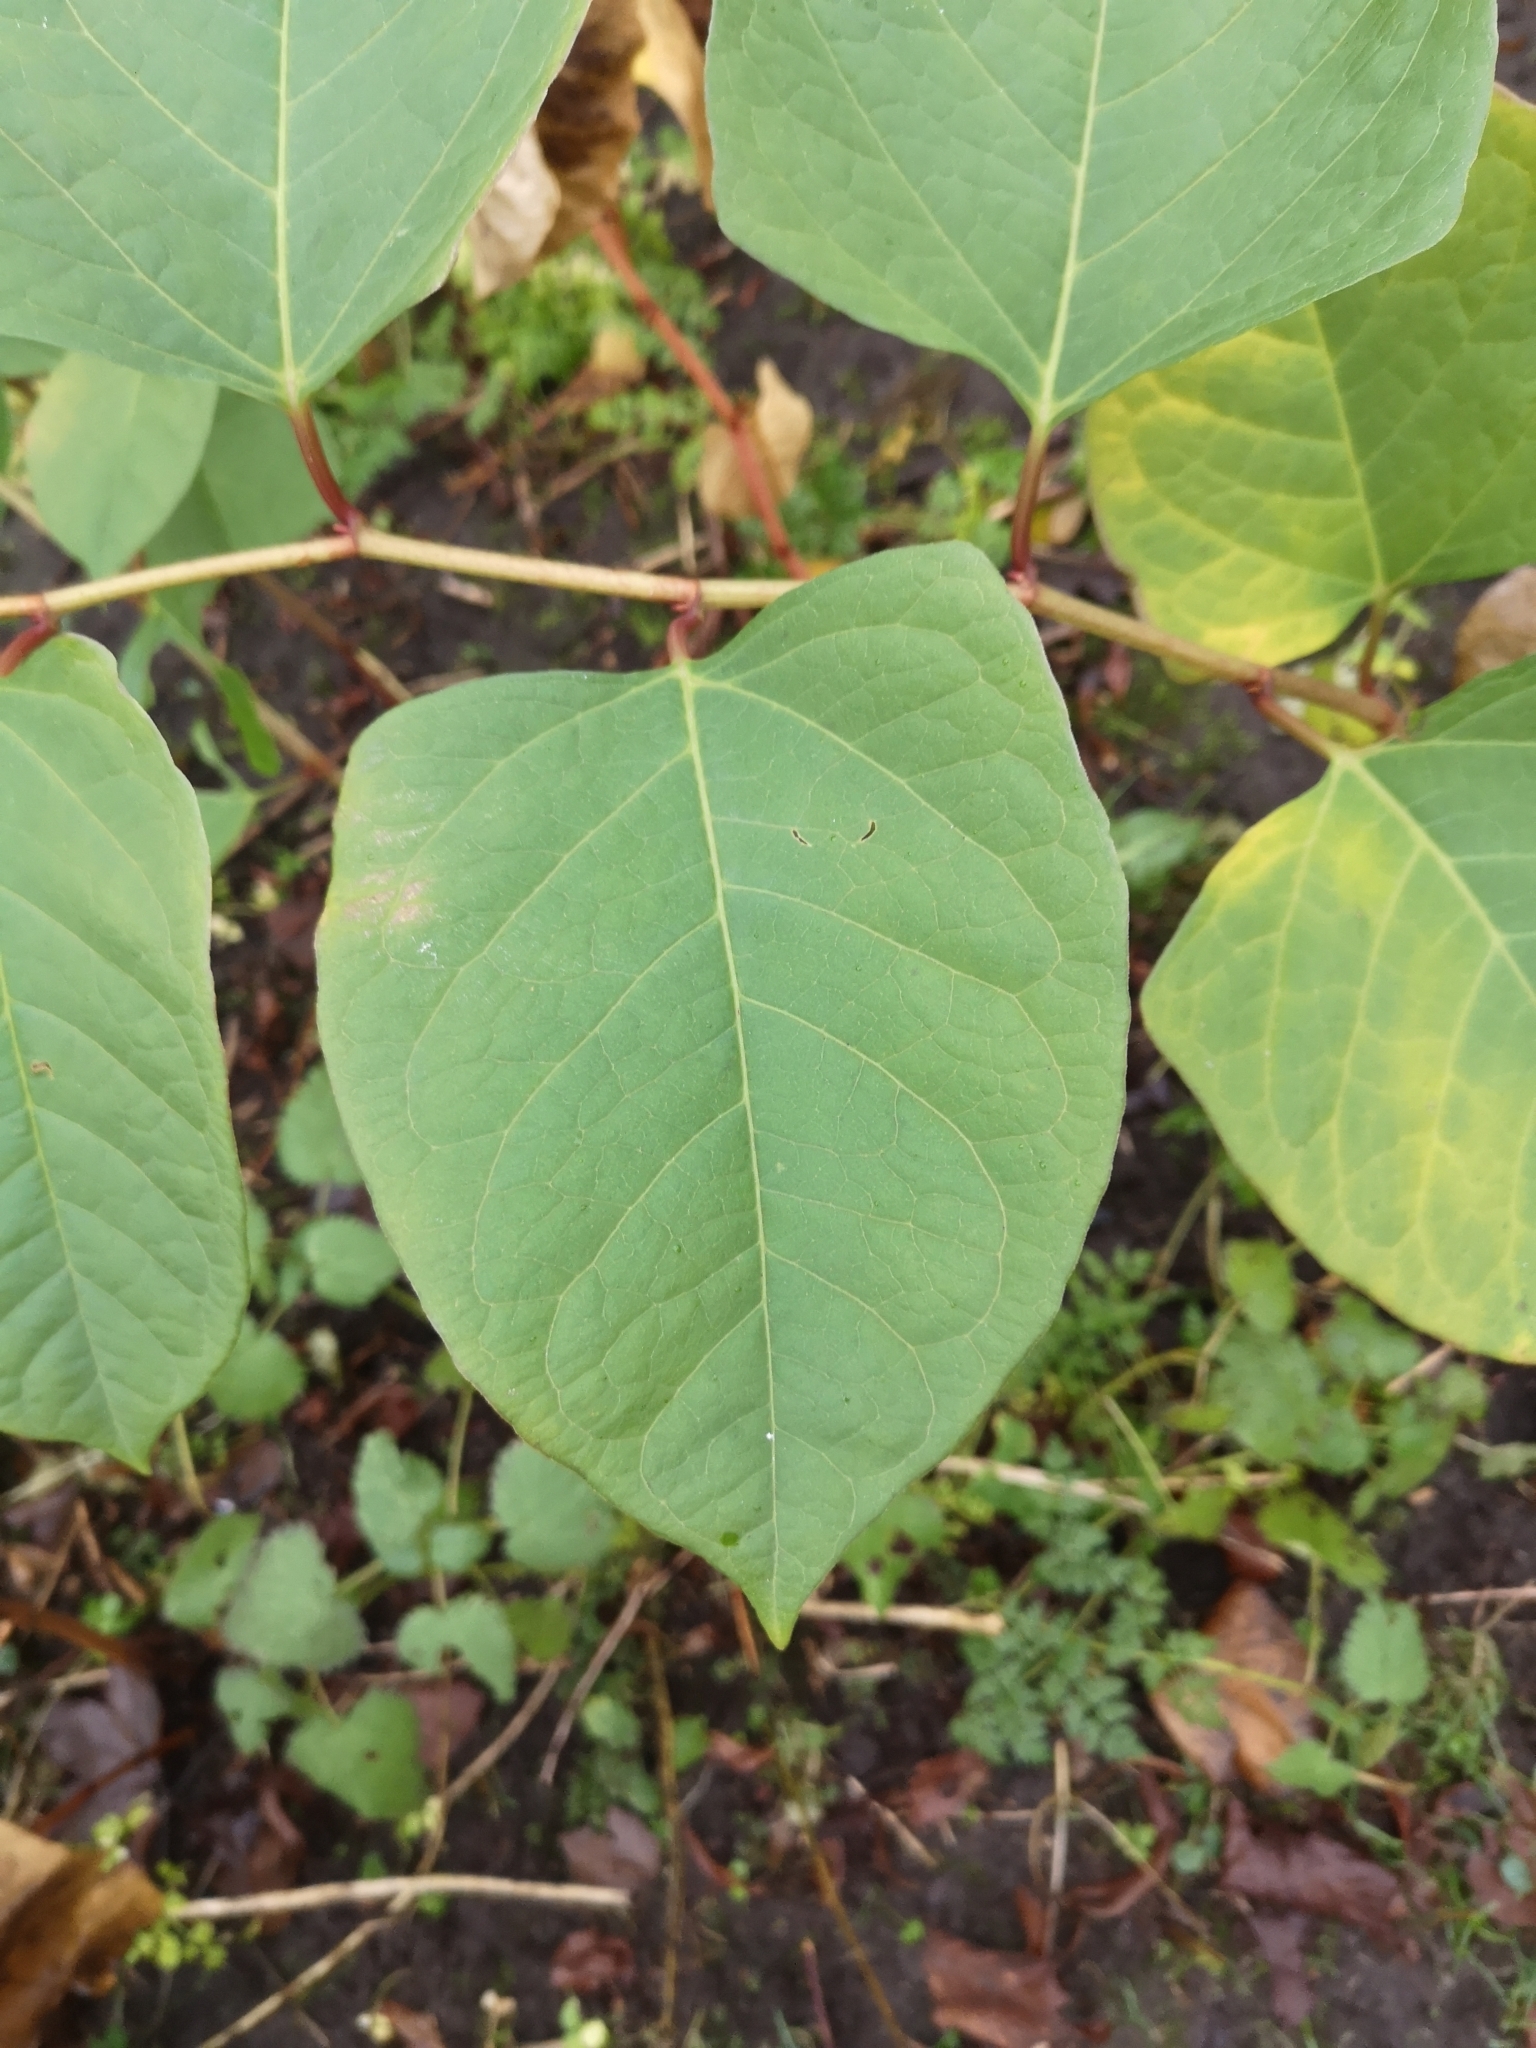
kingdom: Plantae
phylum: Tracheophyta
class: Magnoliopsida
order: Caryophyllales
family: Polygonaceae
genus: Reynoutria
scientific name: Reynoutria japonica
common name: Japanese knotweed
